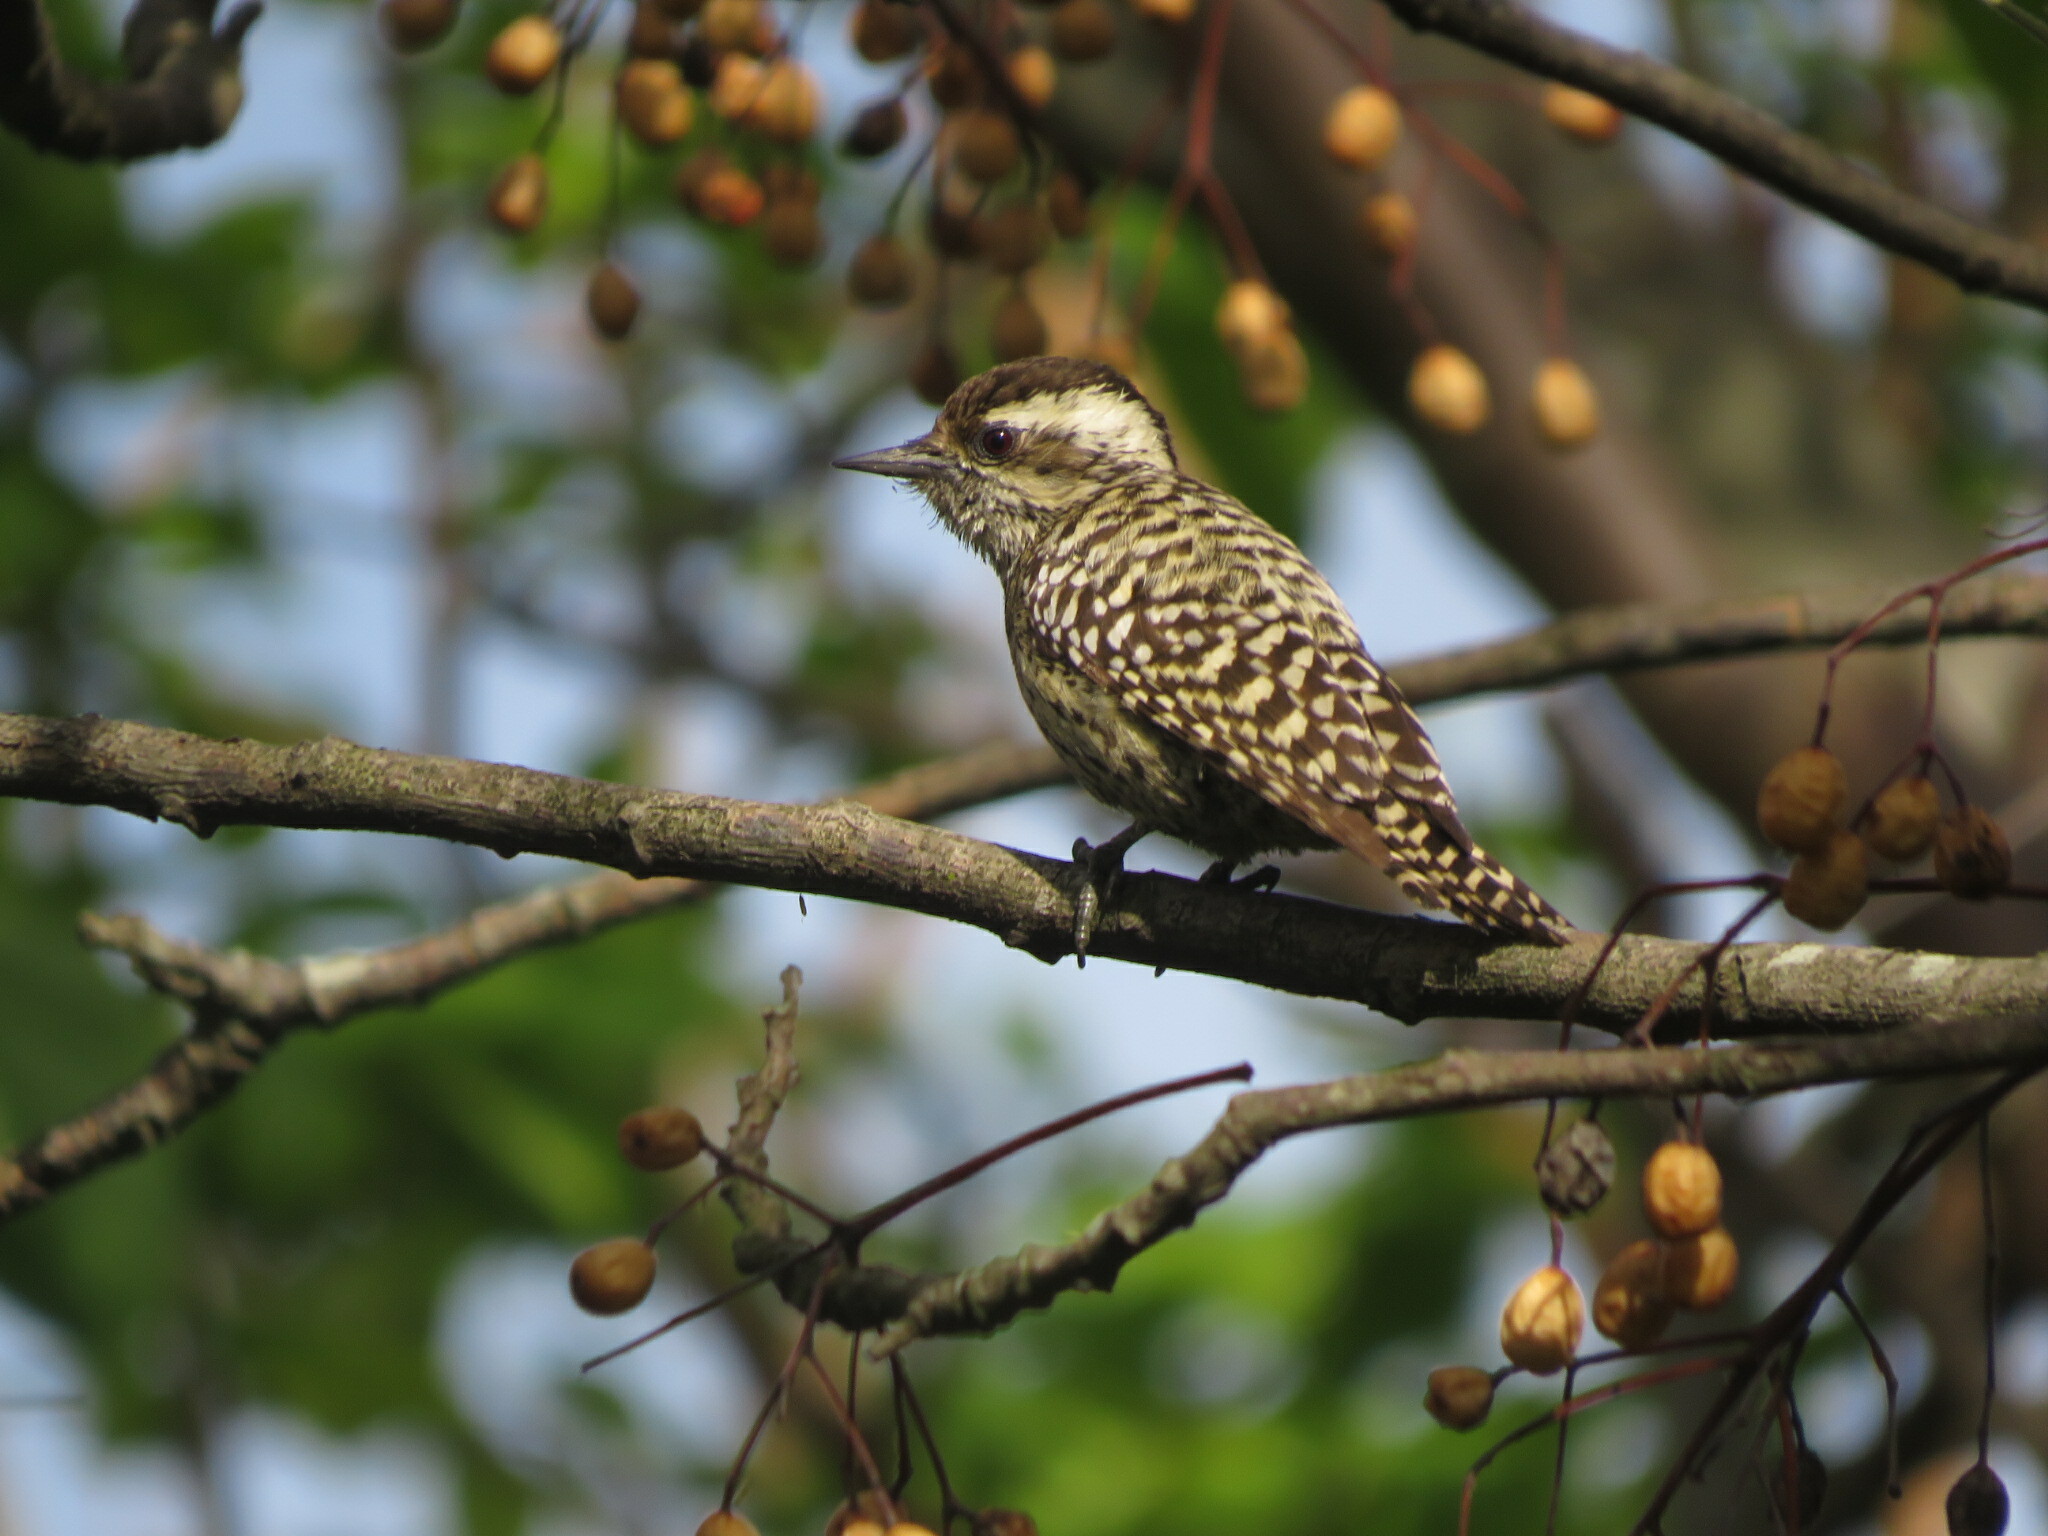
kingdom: Animalia
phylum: Chordata
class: Aves
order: Piciformes
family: Picidae
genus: Veniliornis
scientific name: Veniliornis mixtus
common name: Checkered woodpecker
